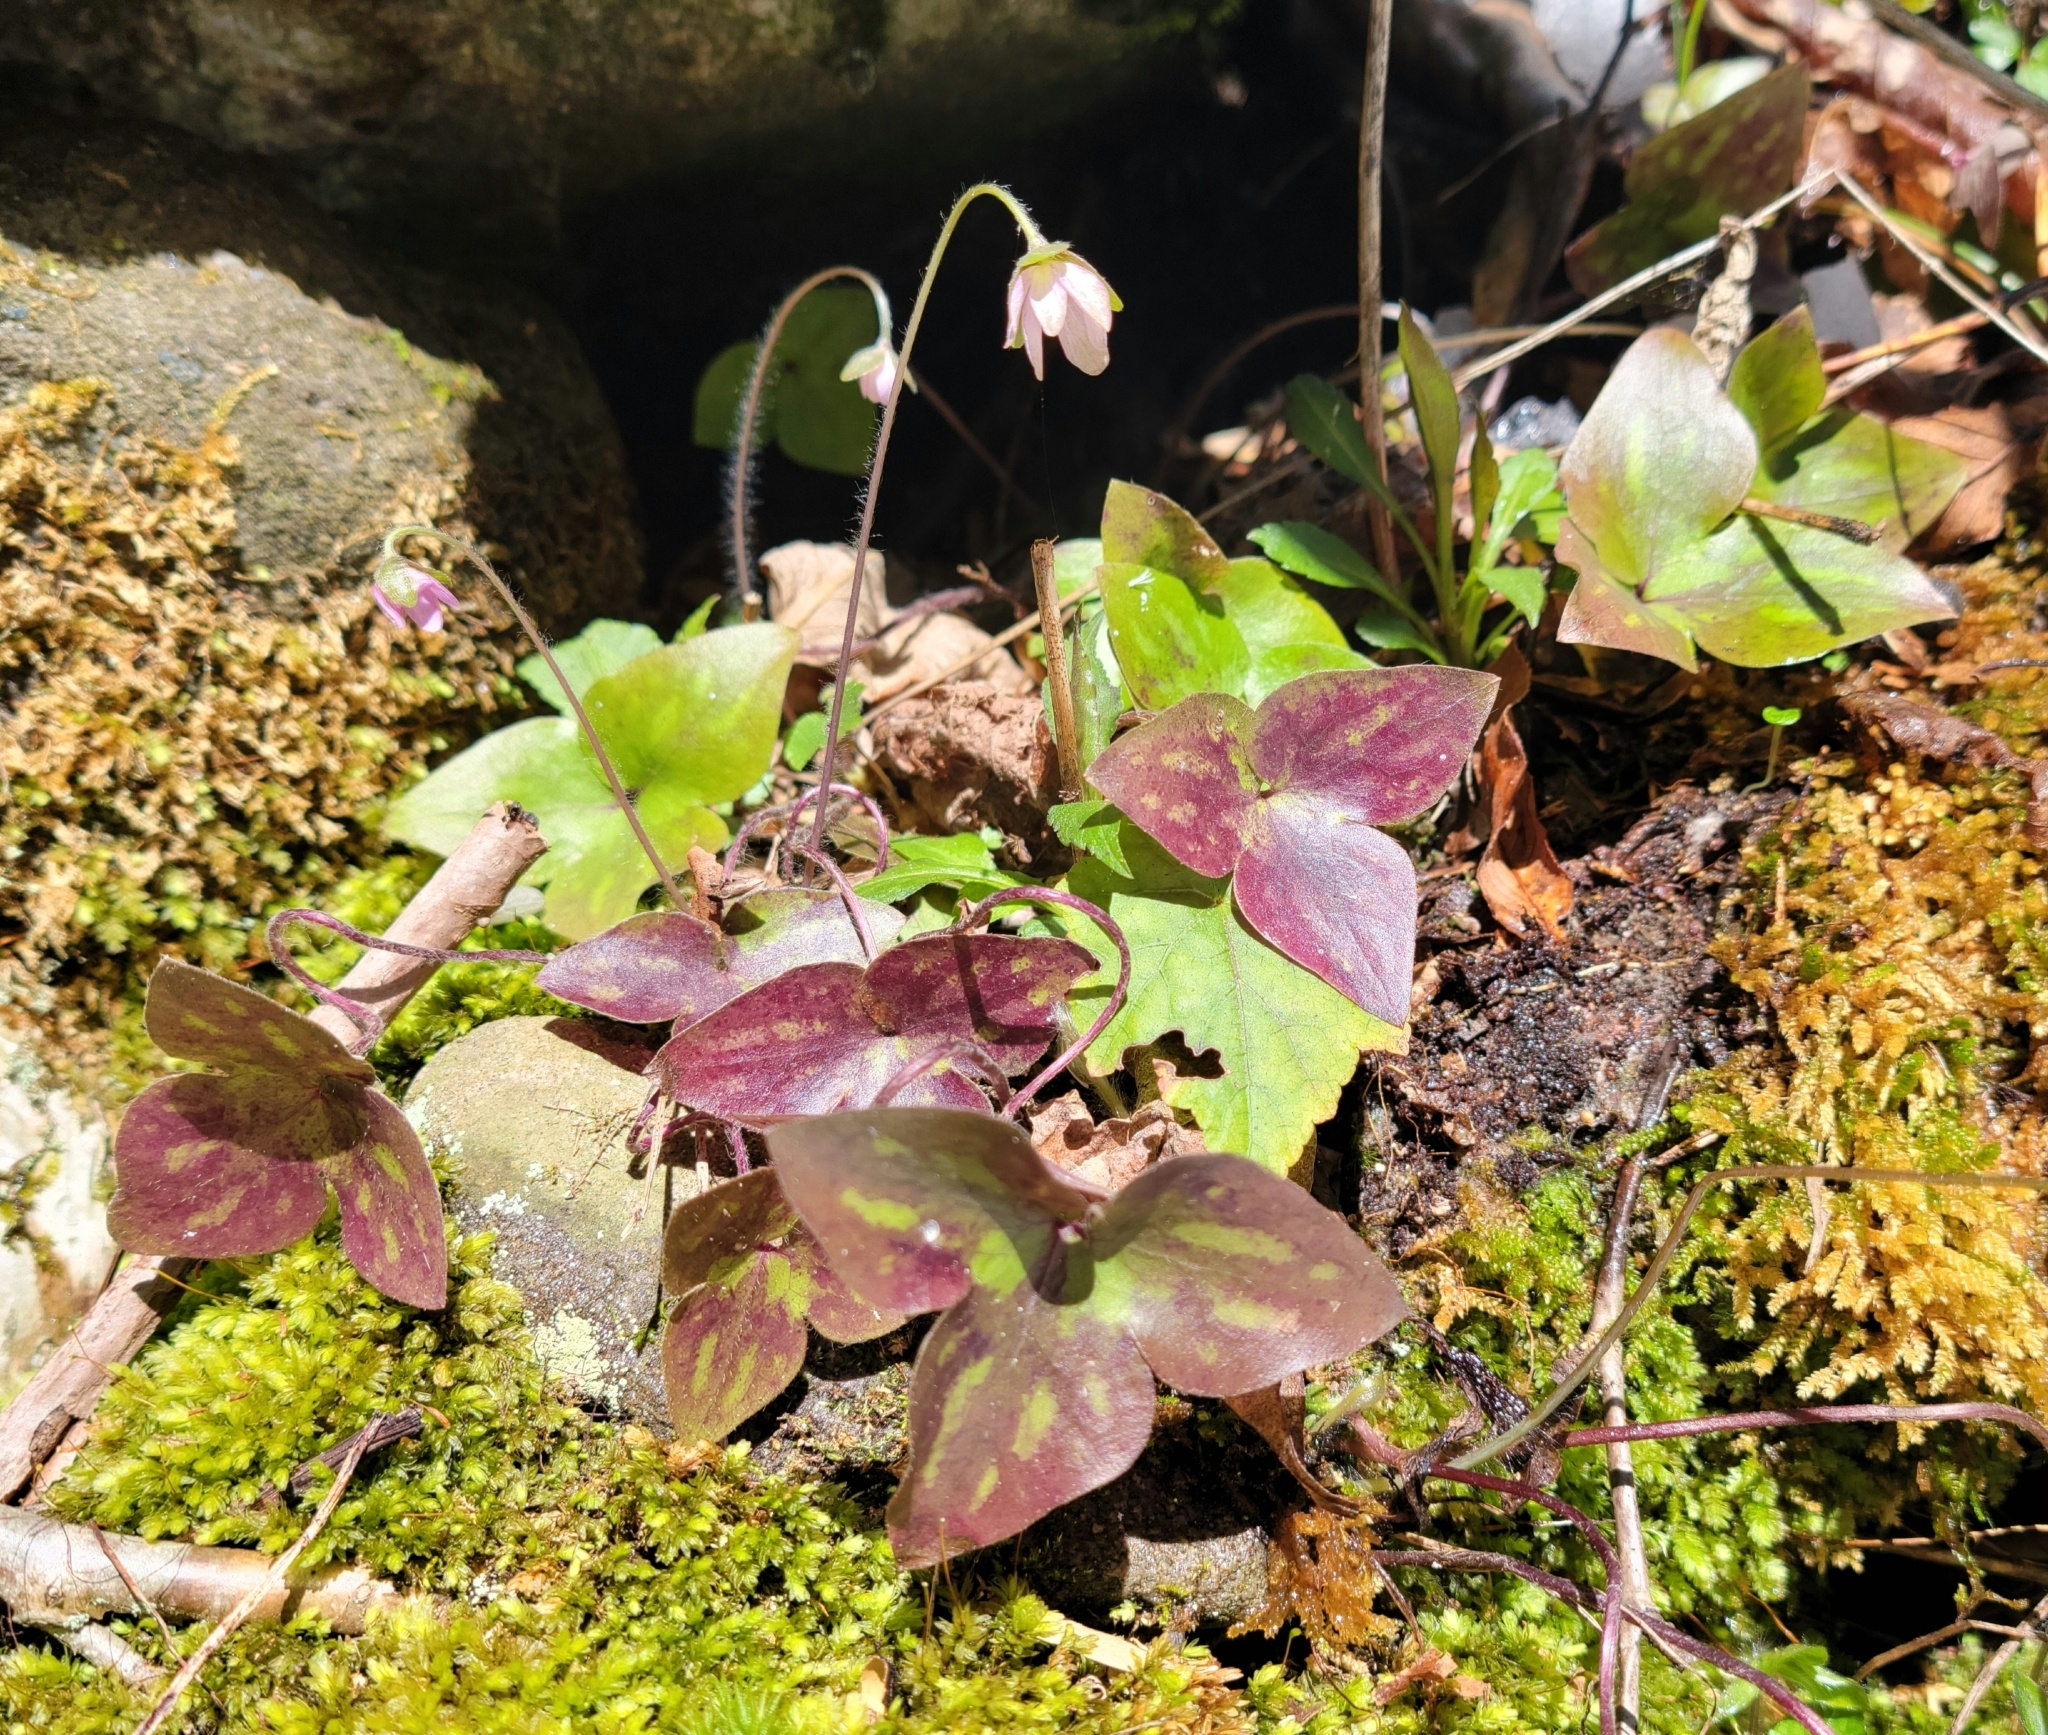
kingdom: Plantae
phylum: Tracheophyta
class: Magnoliopsida
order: Ranunculales
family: Ranunculaceae
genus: Hepatica
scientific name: Hepatica acutiloba
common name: Sharp-lobed hepatica
